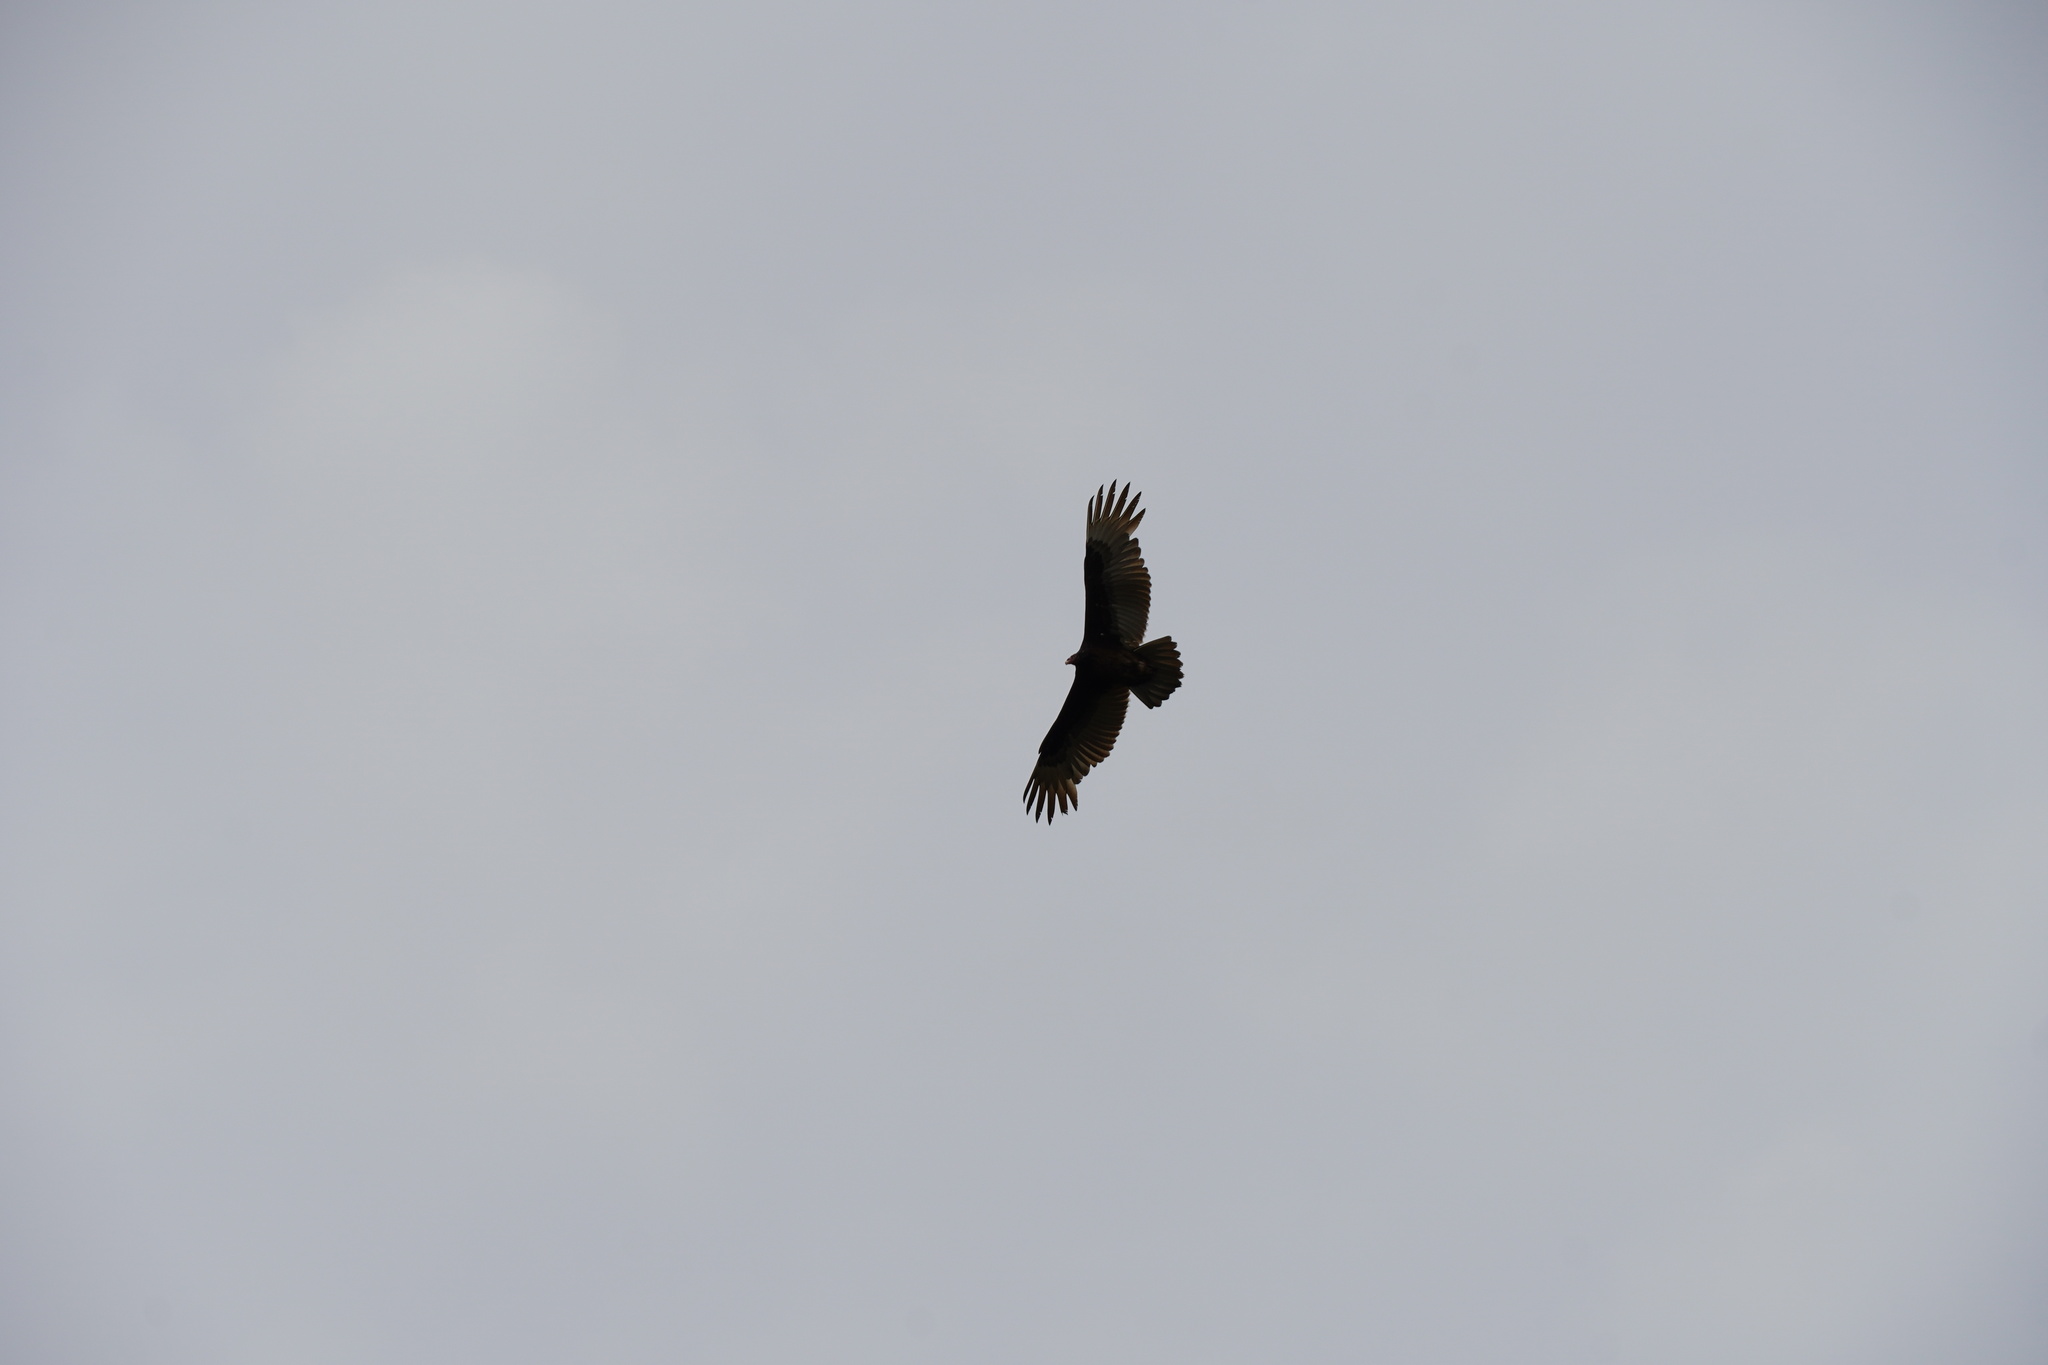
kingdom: Animalia
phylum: Chordata
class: Aves
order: Accipitriformes
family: Cathartidae
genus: Cathartes
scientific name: Cathartes aura
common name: Turkey vulture
